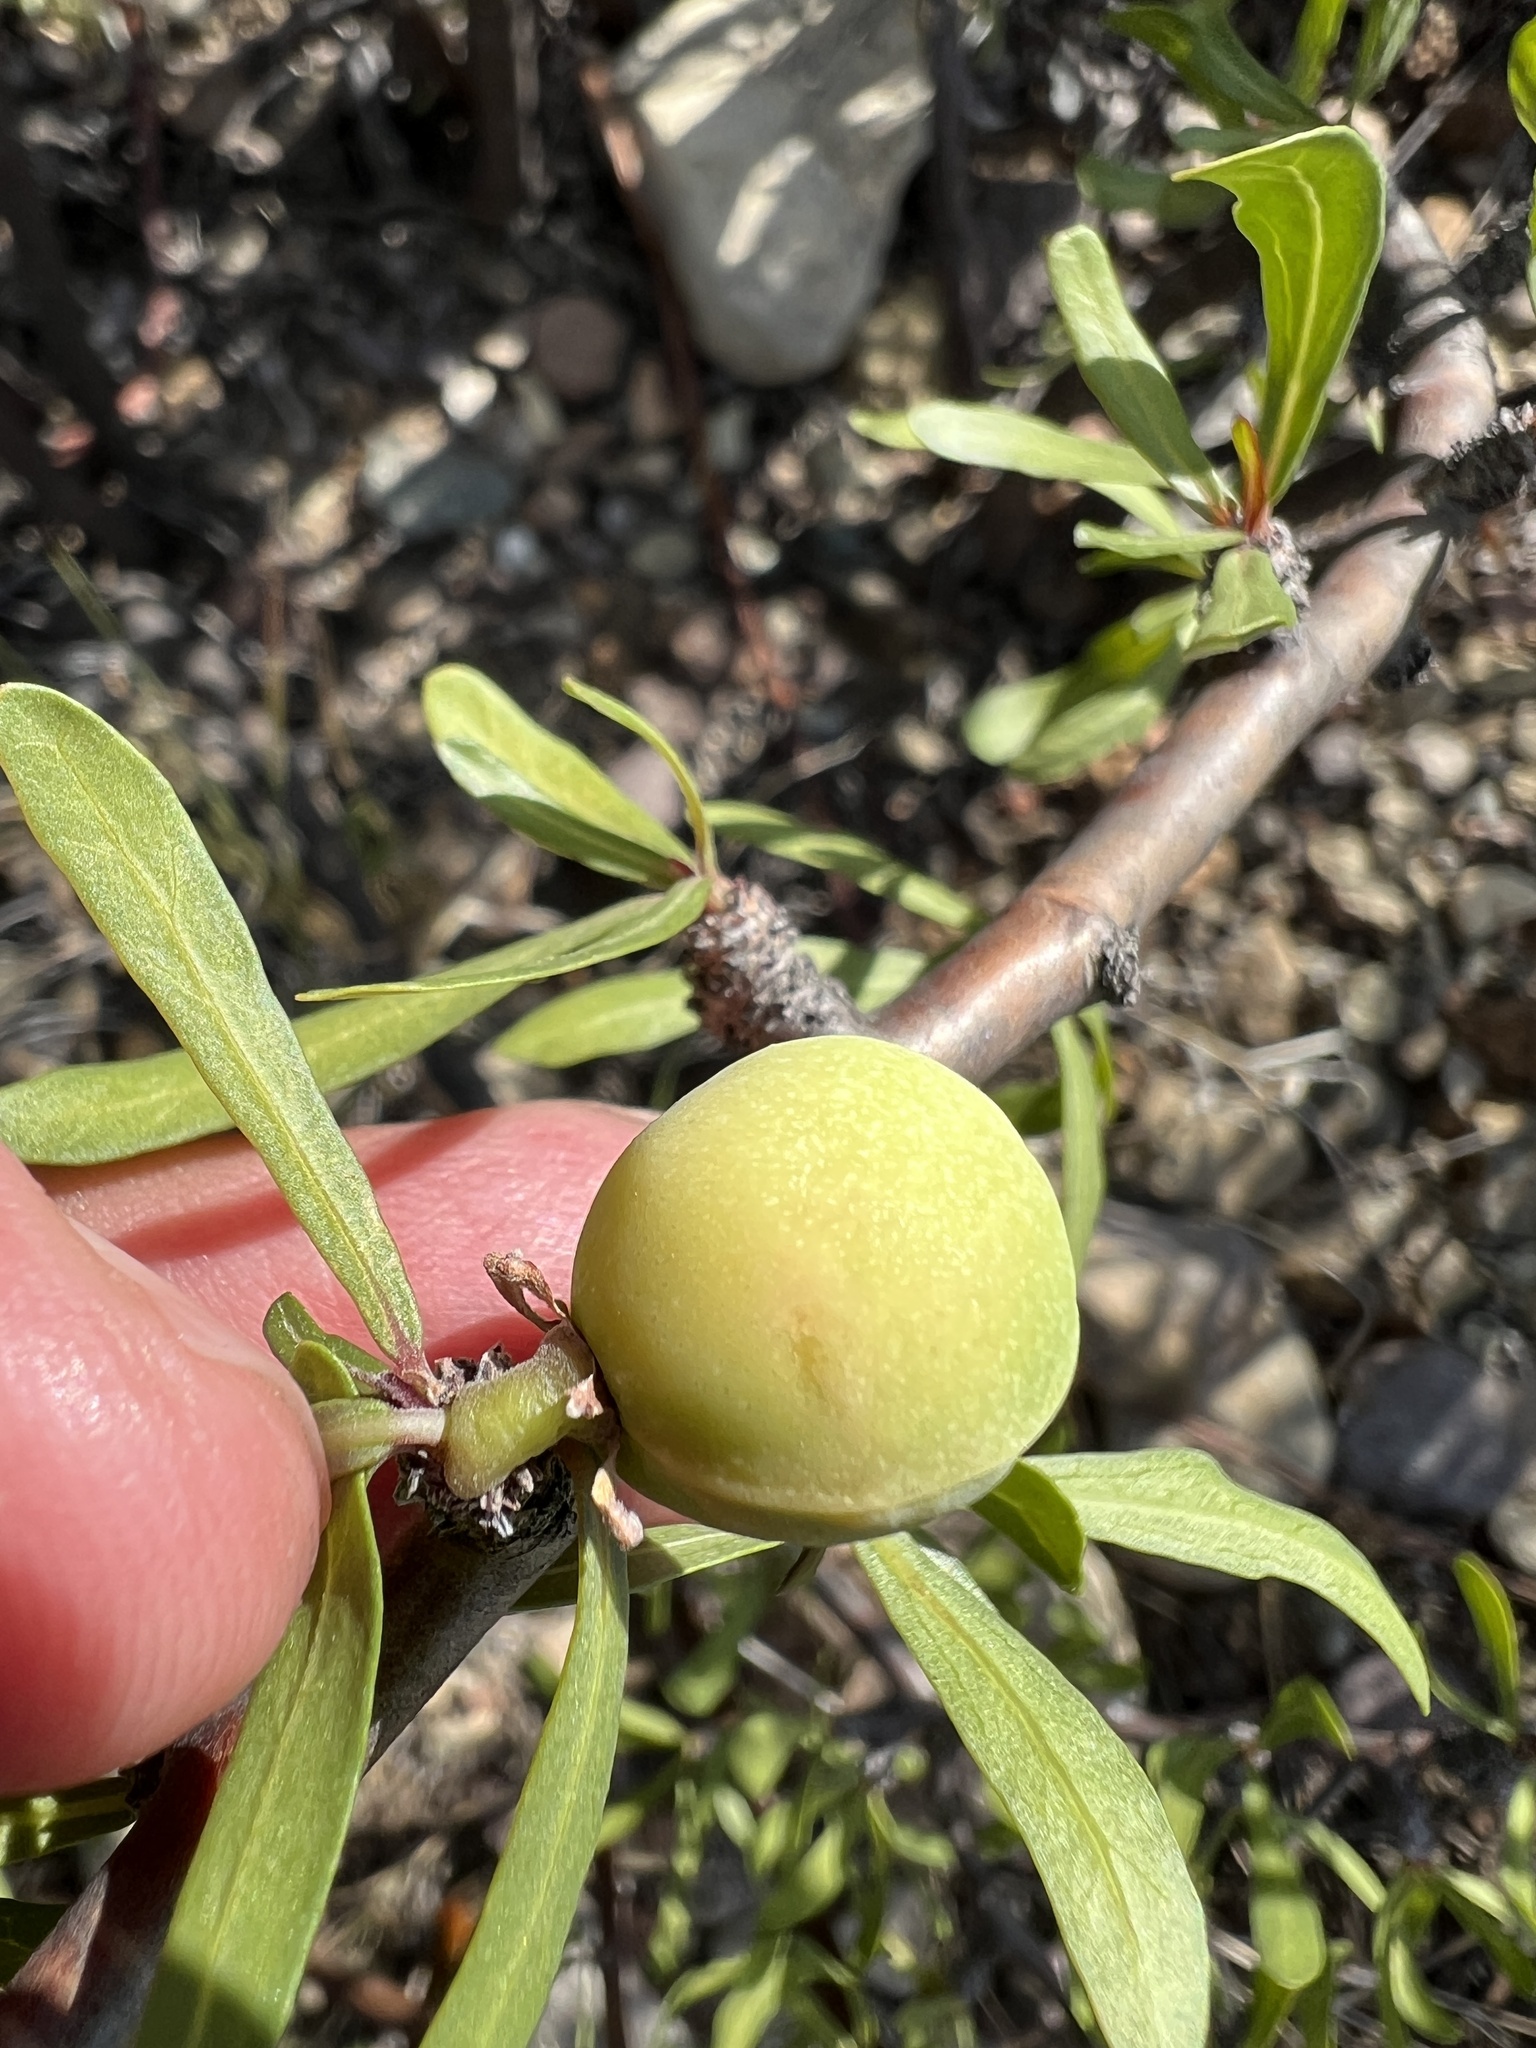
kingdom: Plantae
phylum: Tracheophyta
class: Magnoliopsida
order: Malpighiales
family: Euphorbiaceae
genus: Jatropha
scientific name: Jatropha dioica
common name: Leatherstem
